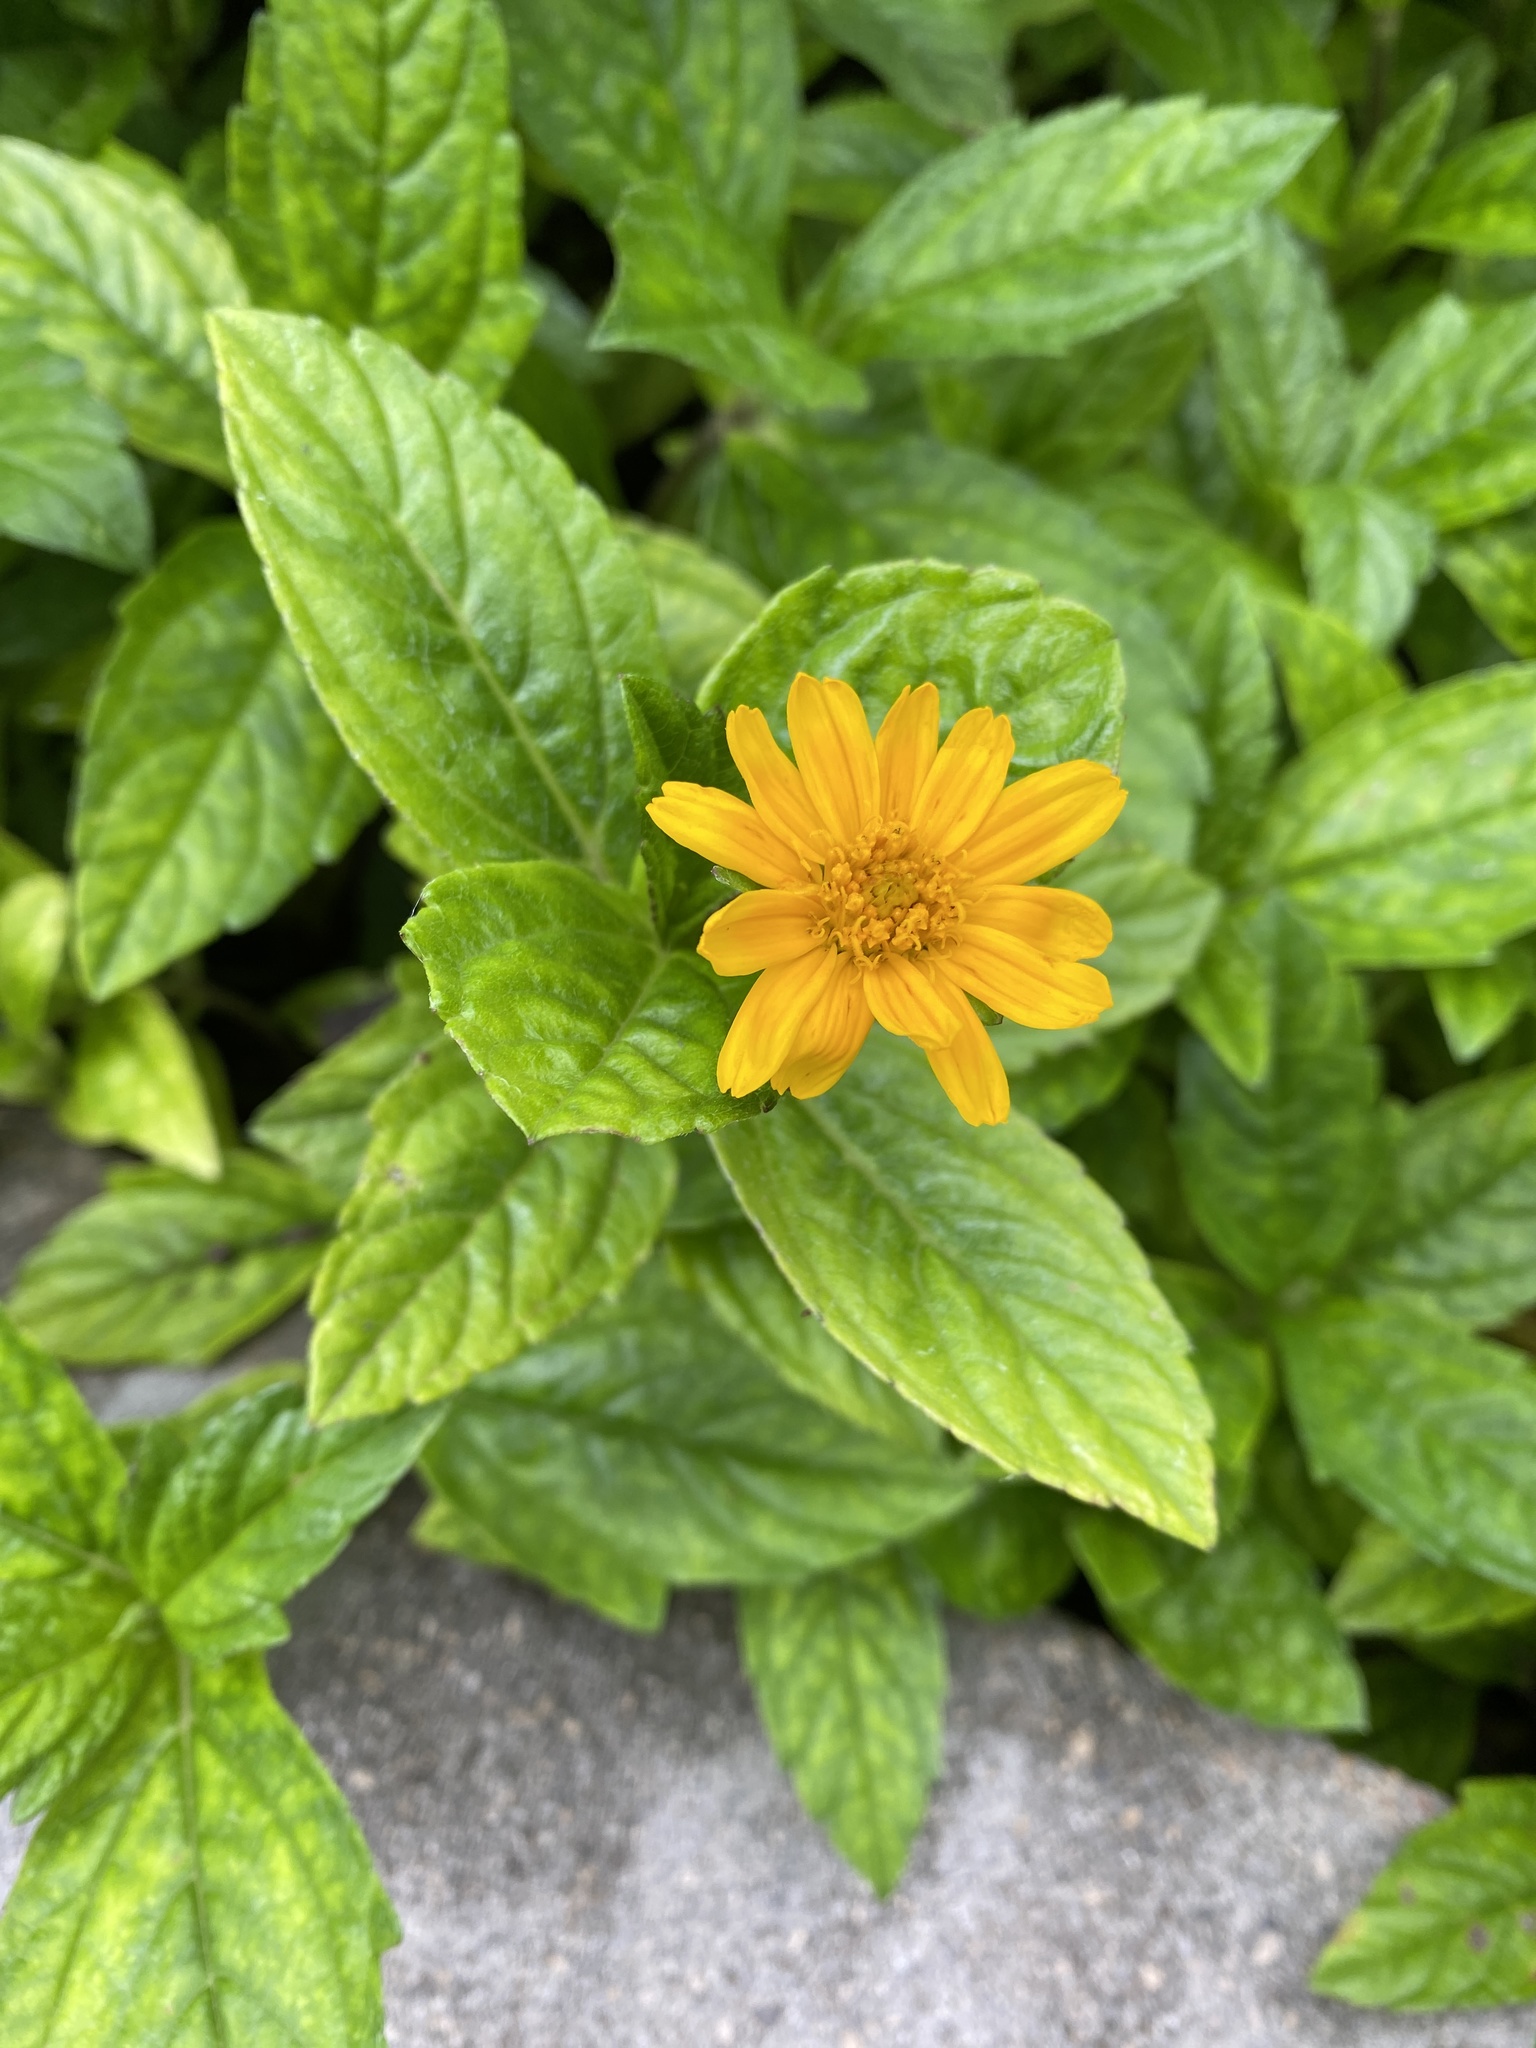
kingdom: Plantae
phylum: Tracheophyta
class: Magnoliopsida
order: Asterales
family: Asteraceae
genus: Sphagneticola
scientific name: Sphagneticola trilobata
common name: Bay biscayne creeping-oxeye
